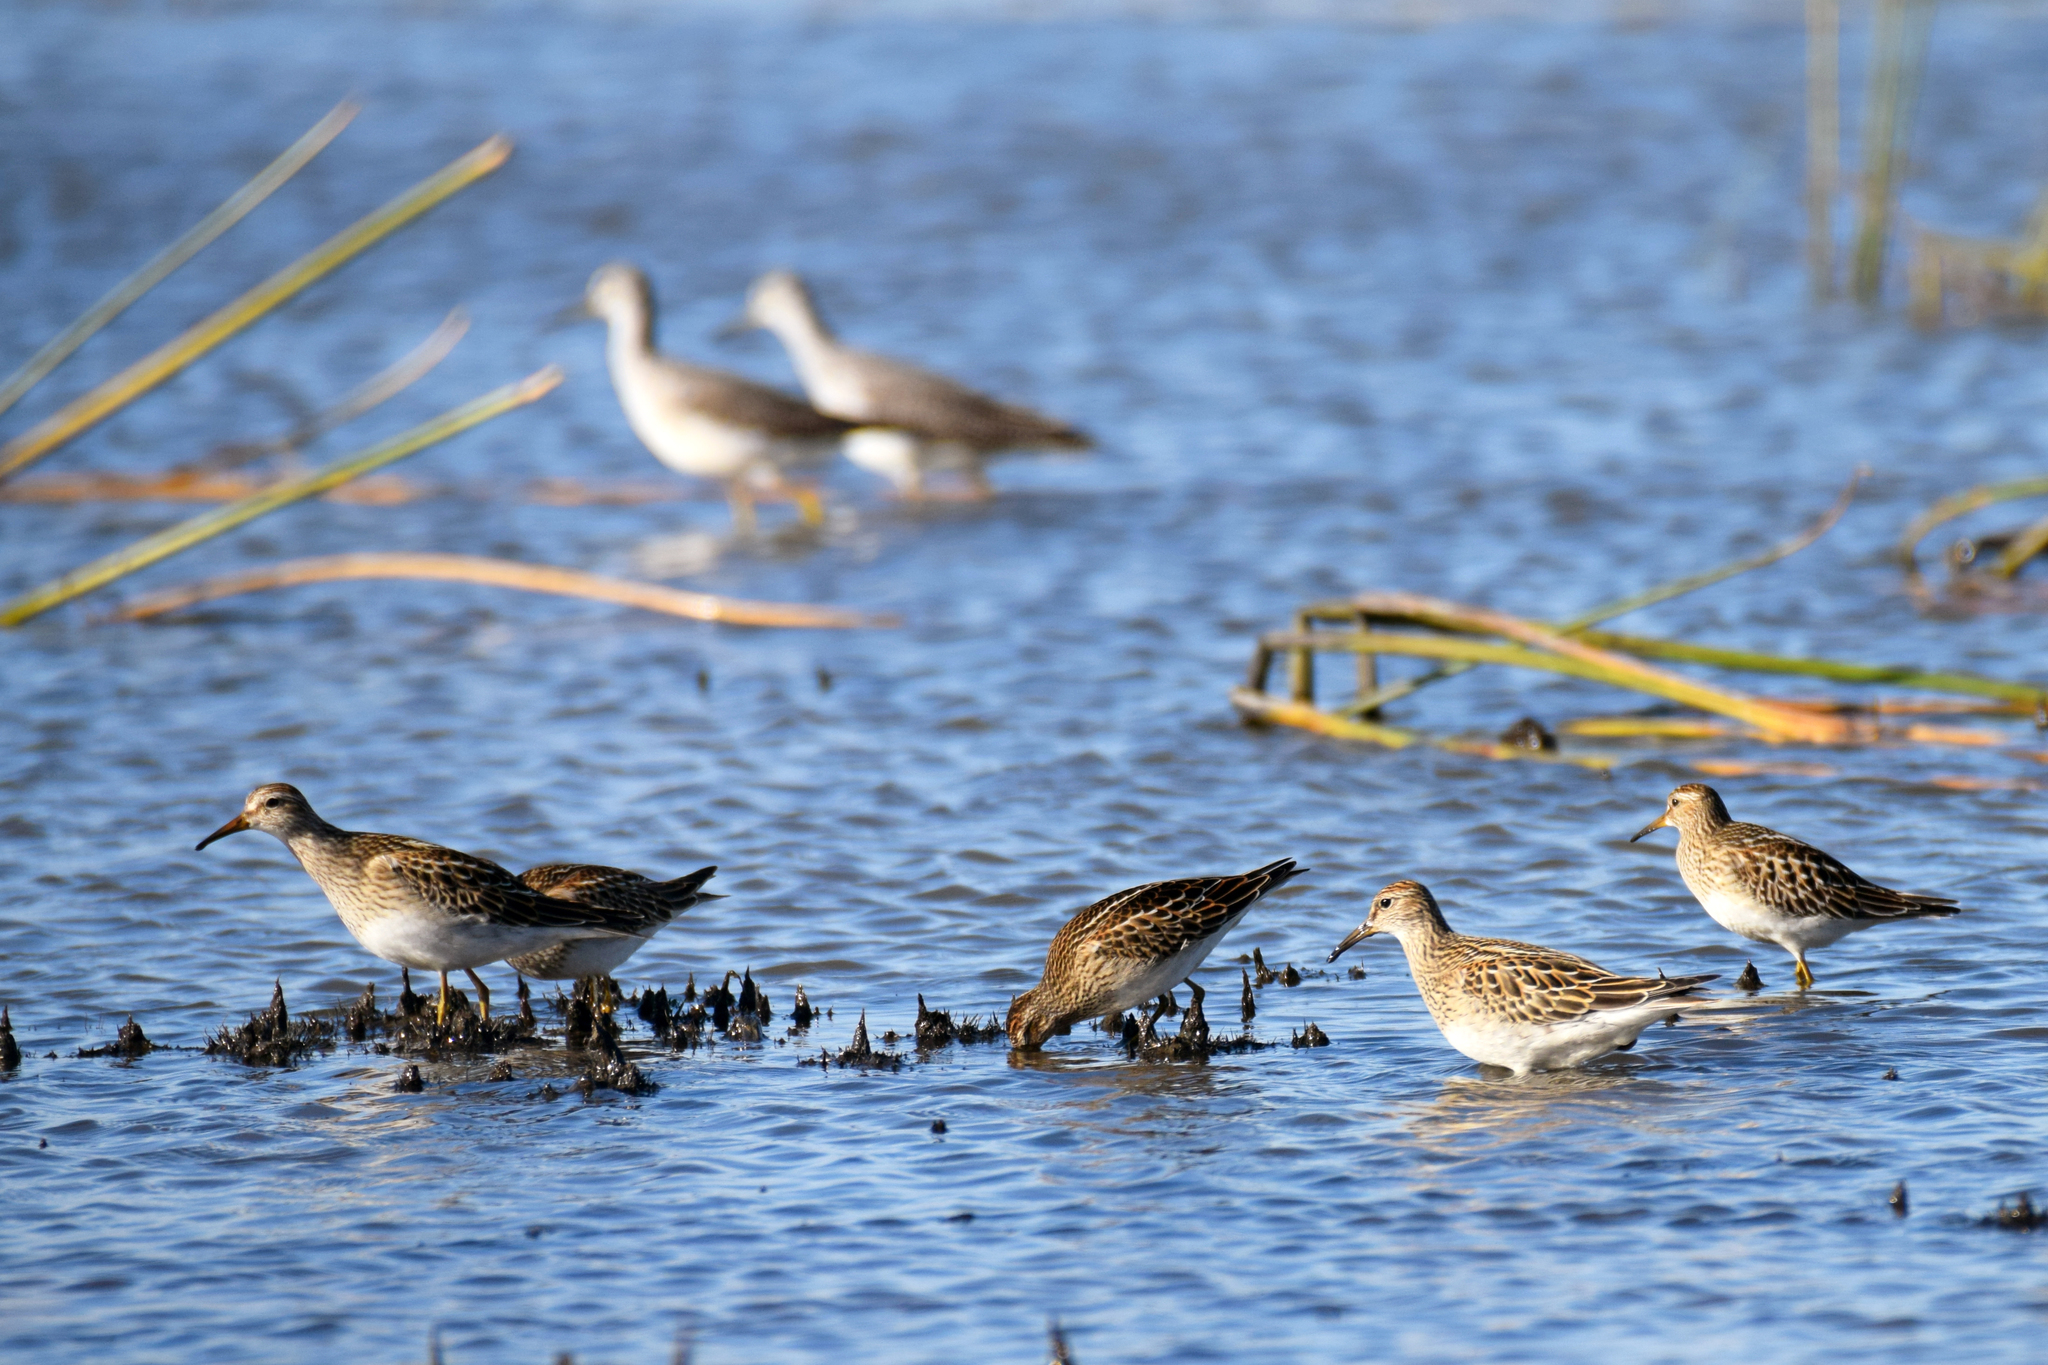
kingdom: Animalia
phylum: Chordata
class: Aves
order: Charadriiformes
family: Scolopacidae
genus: Calidris
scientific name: Calidris melanotos
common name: Pectoral sandpiper
